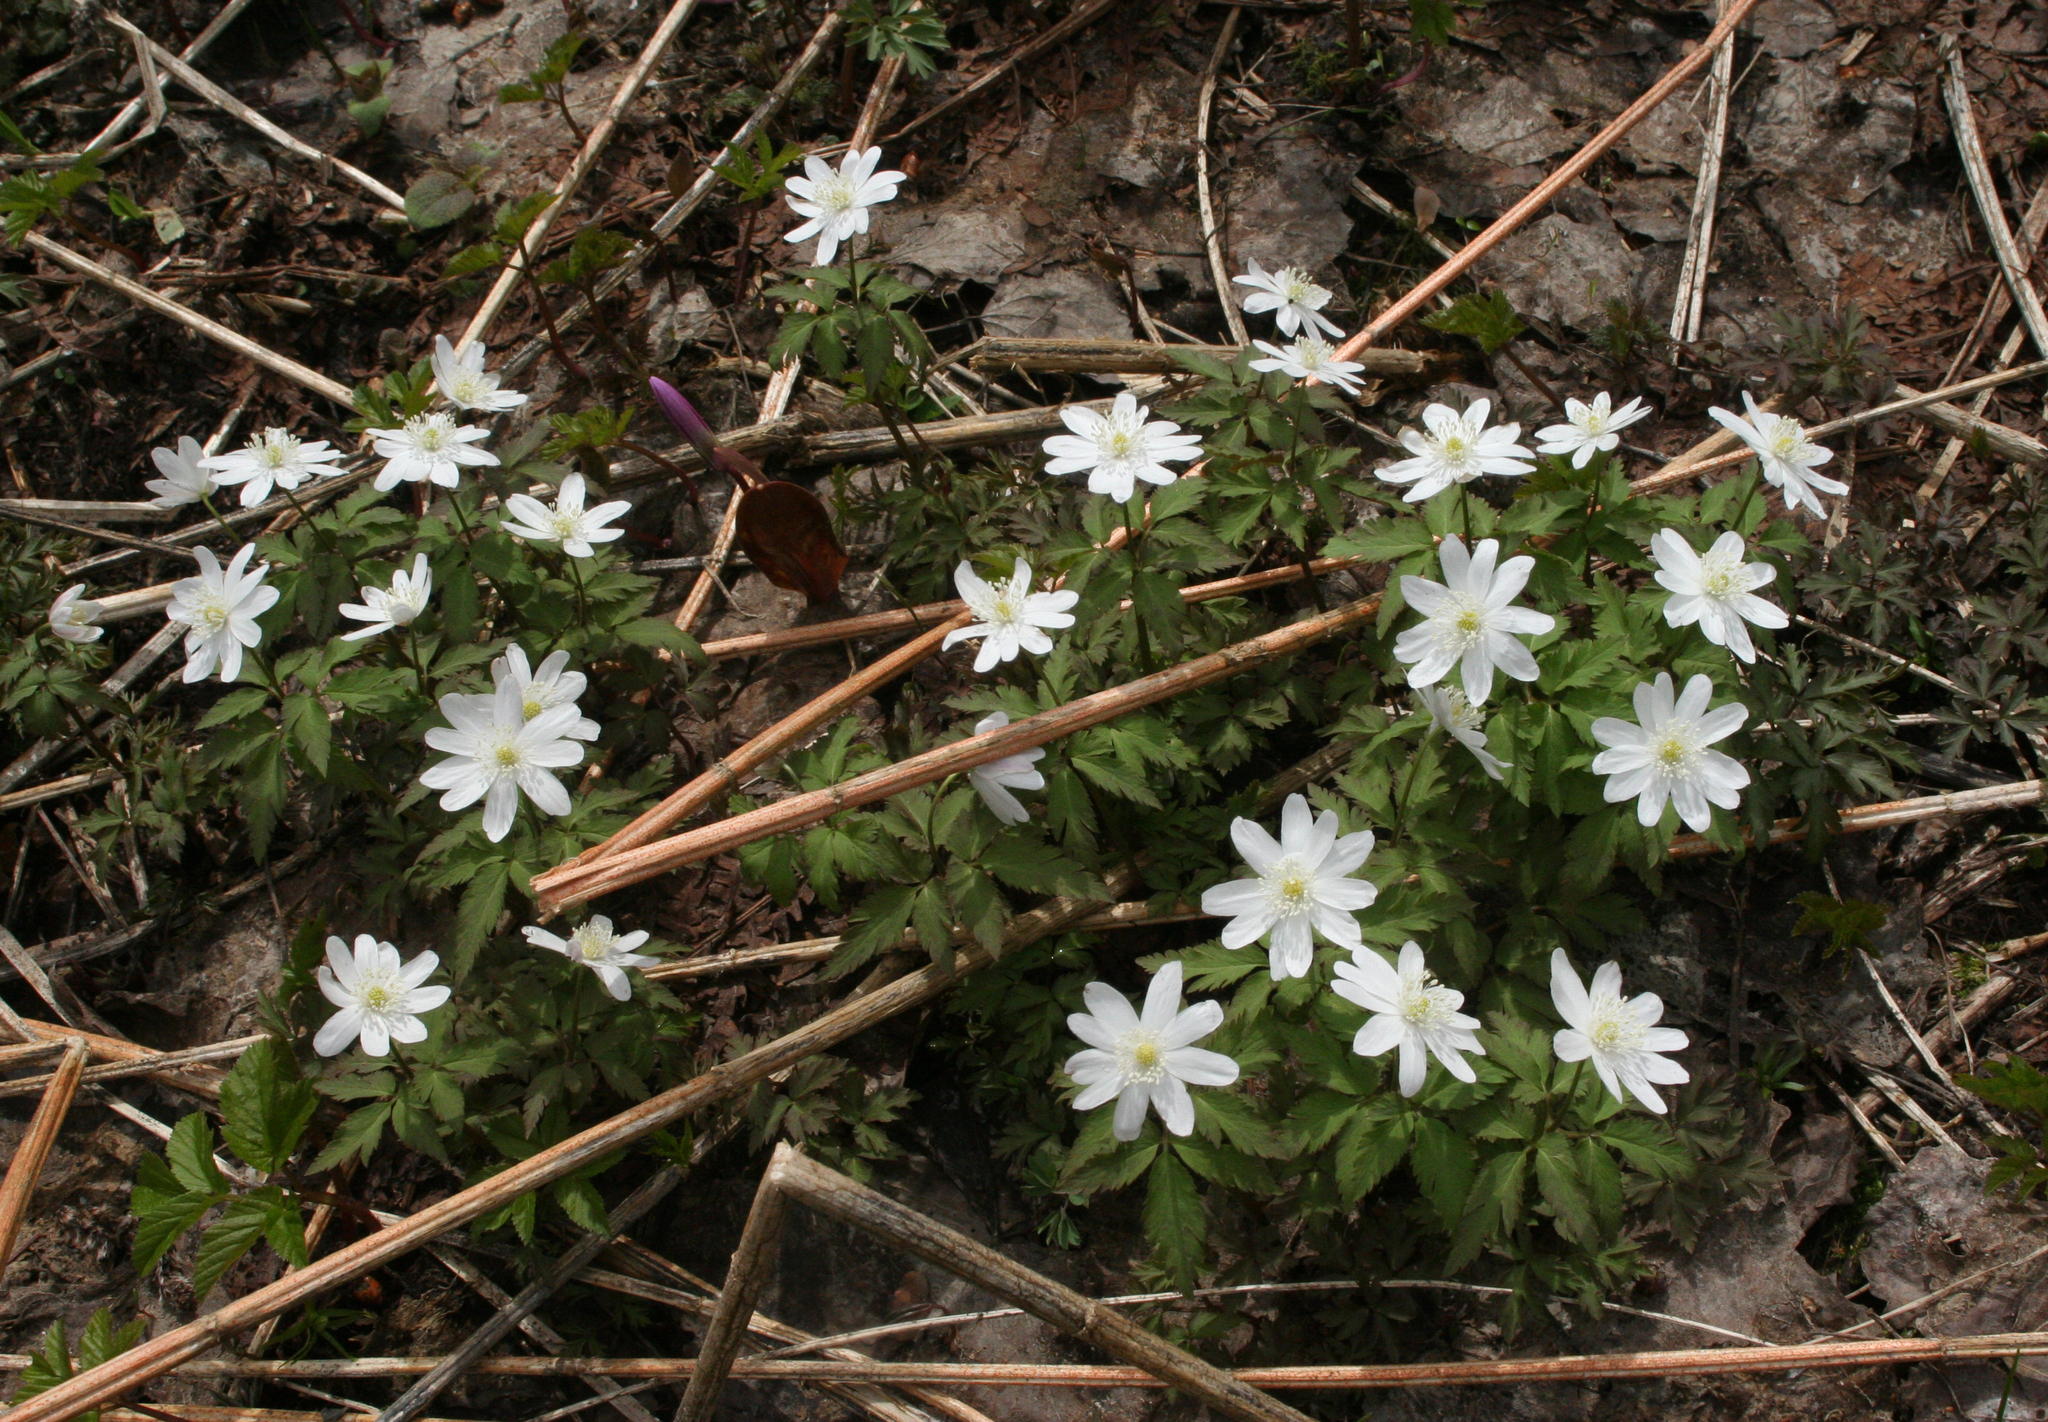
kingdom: Plantae
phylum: Tracheophyta
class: Magnoliopsida
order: Ranunculales
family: Ranunculaceae
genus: Anemone
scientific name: Anemone altaica
